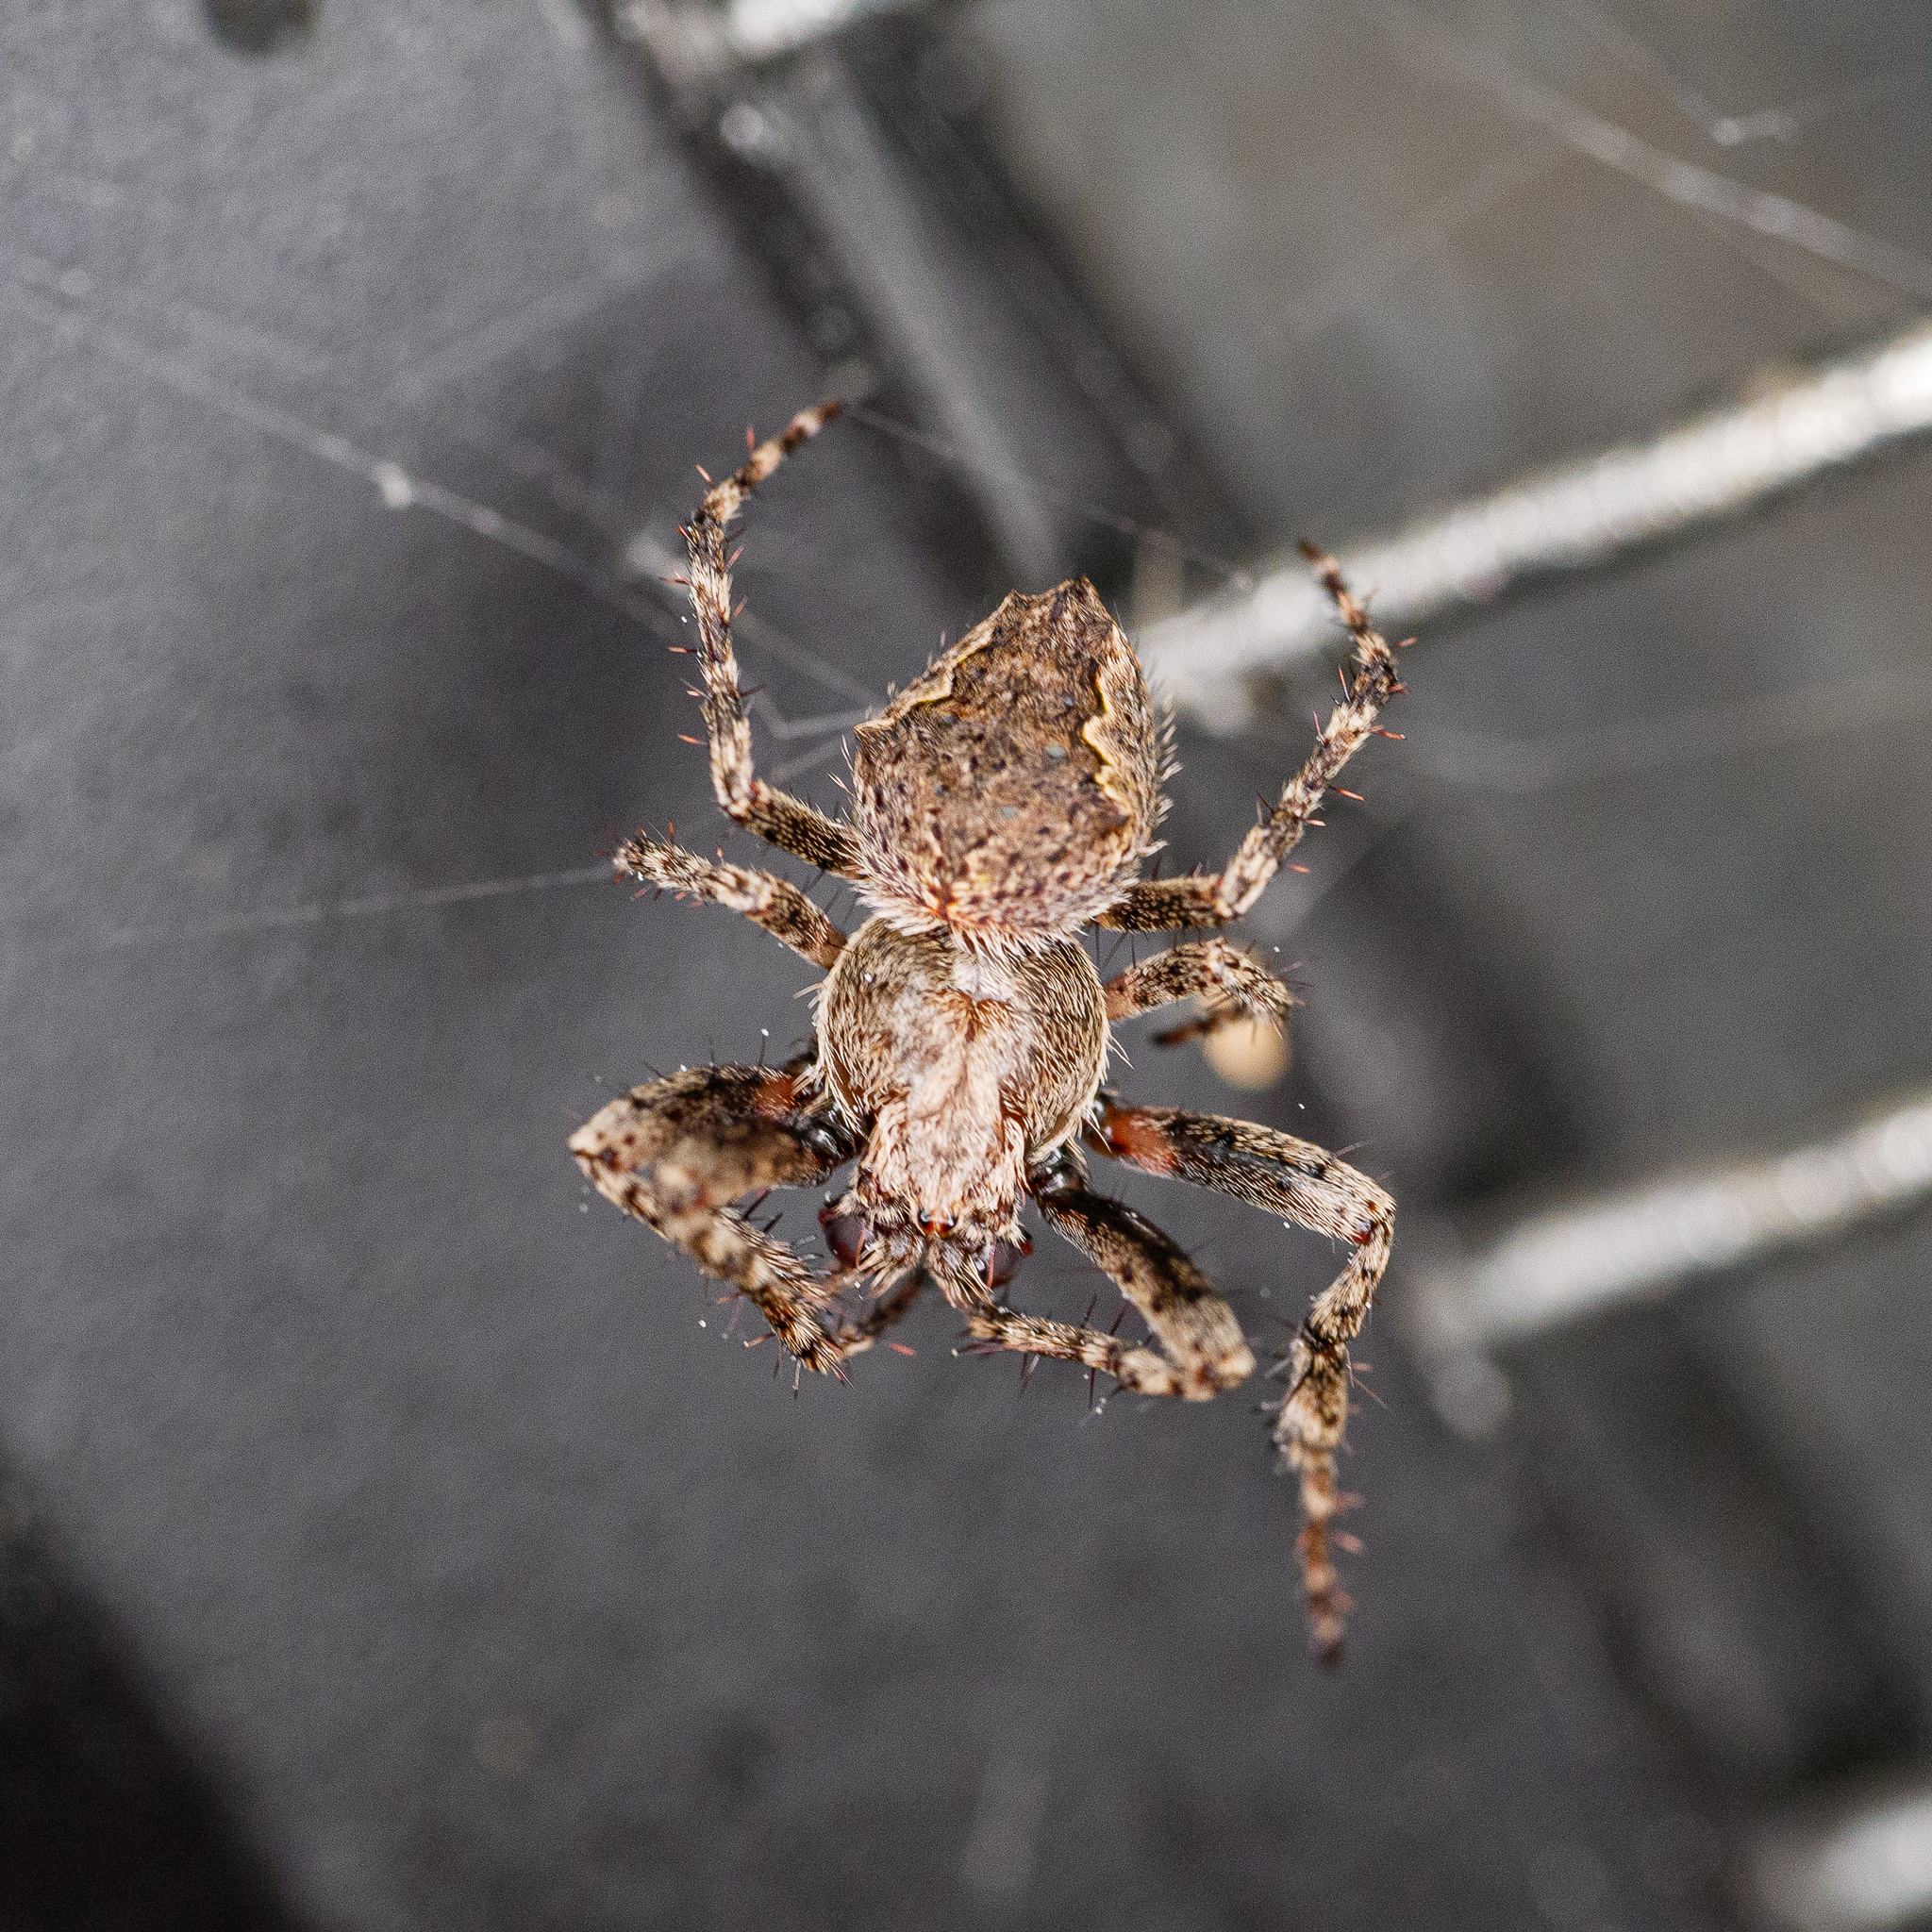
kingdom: Animalia
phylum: Arthropoda
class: Arachnida
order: Araneae
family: Araneidae
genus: Eriophora
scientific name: Eriophora pustulosa
